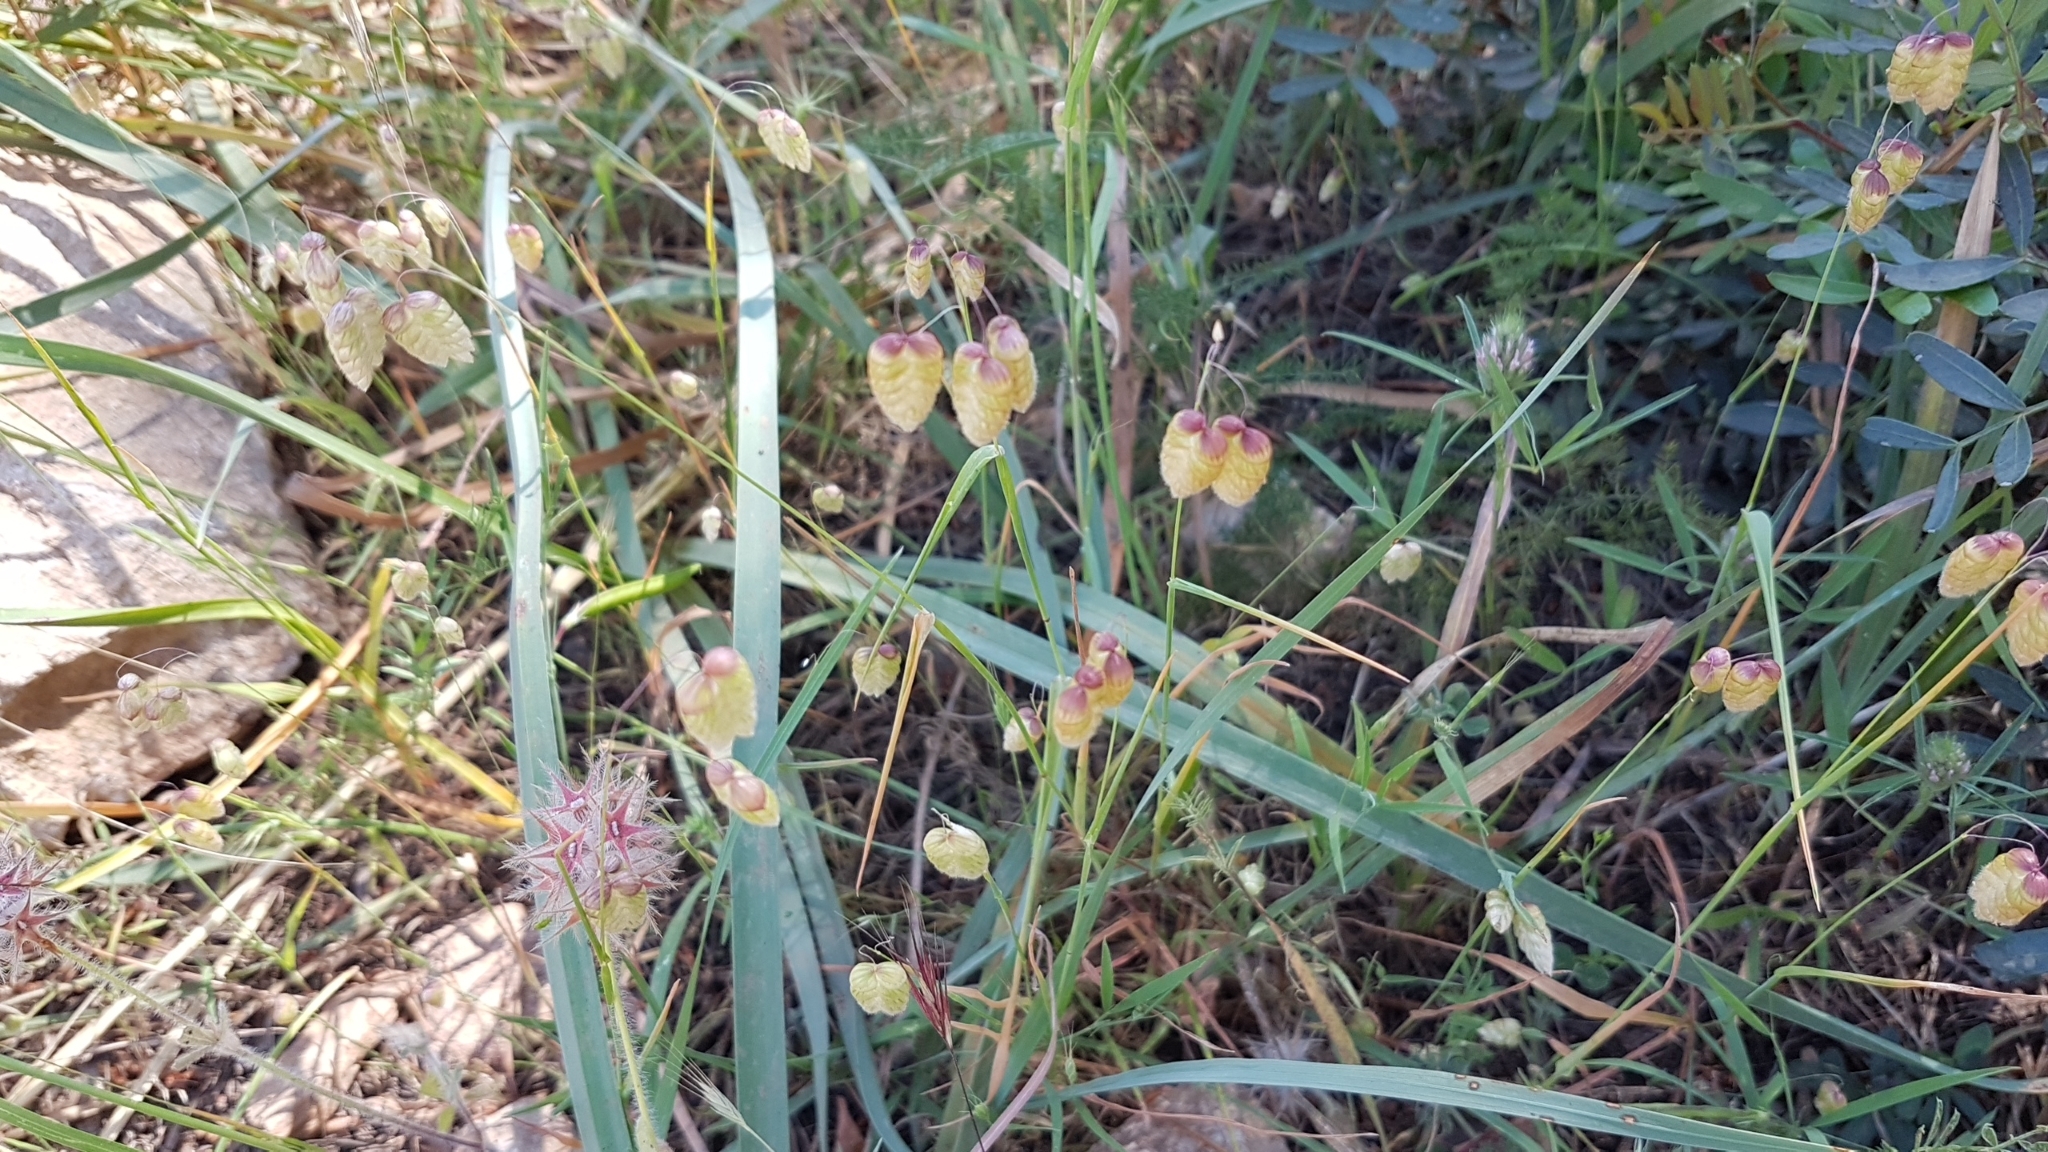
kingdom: Plantae
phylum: Tracheophyta
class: Liliopsida
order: Poales
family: Poaceae
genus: Briza
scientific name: Briza maxima
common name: Big quakinggrass
